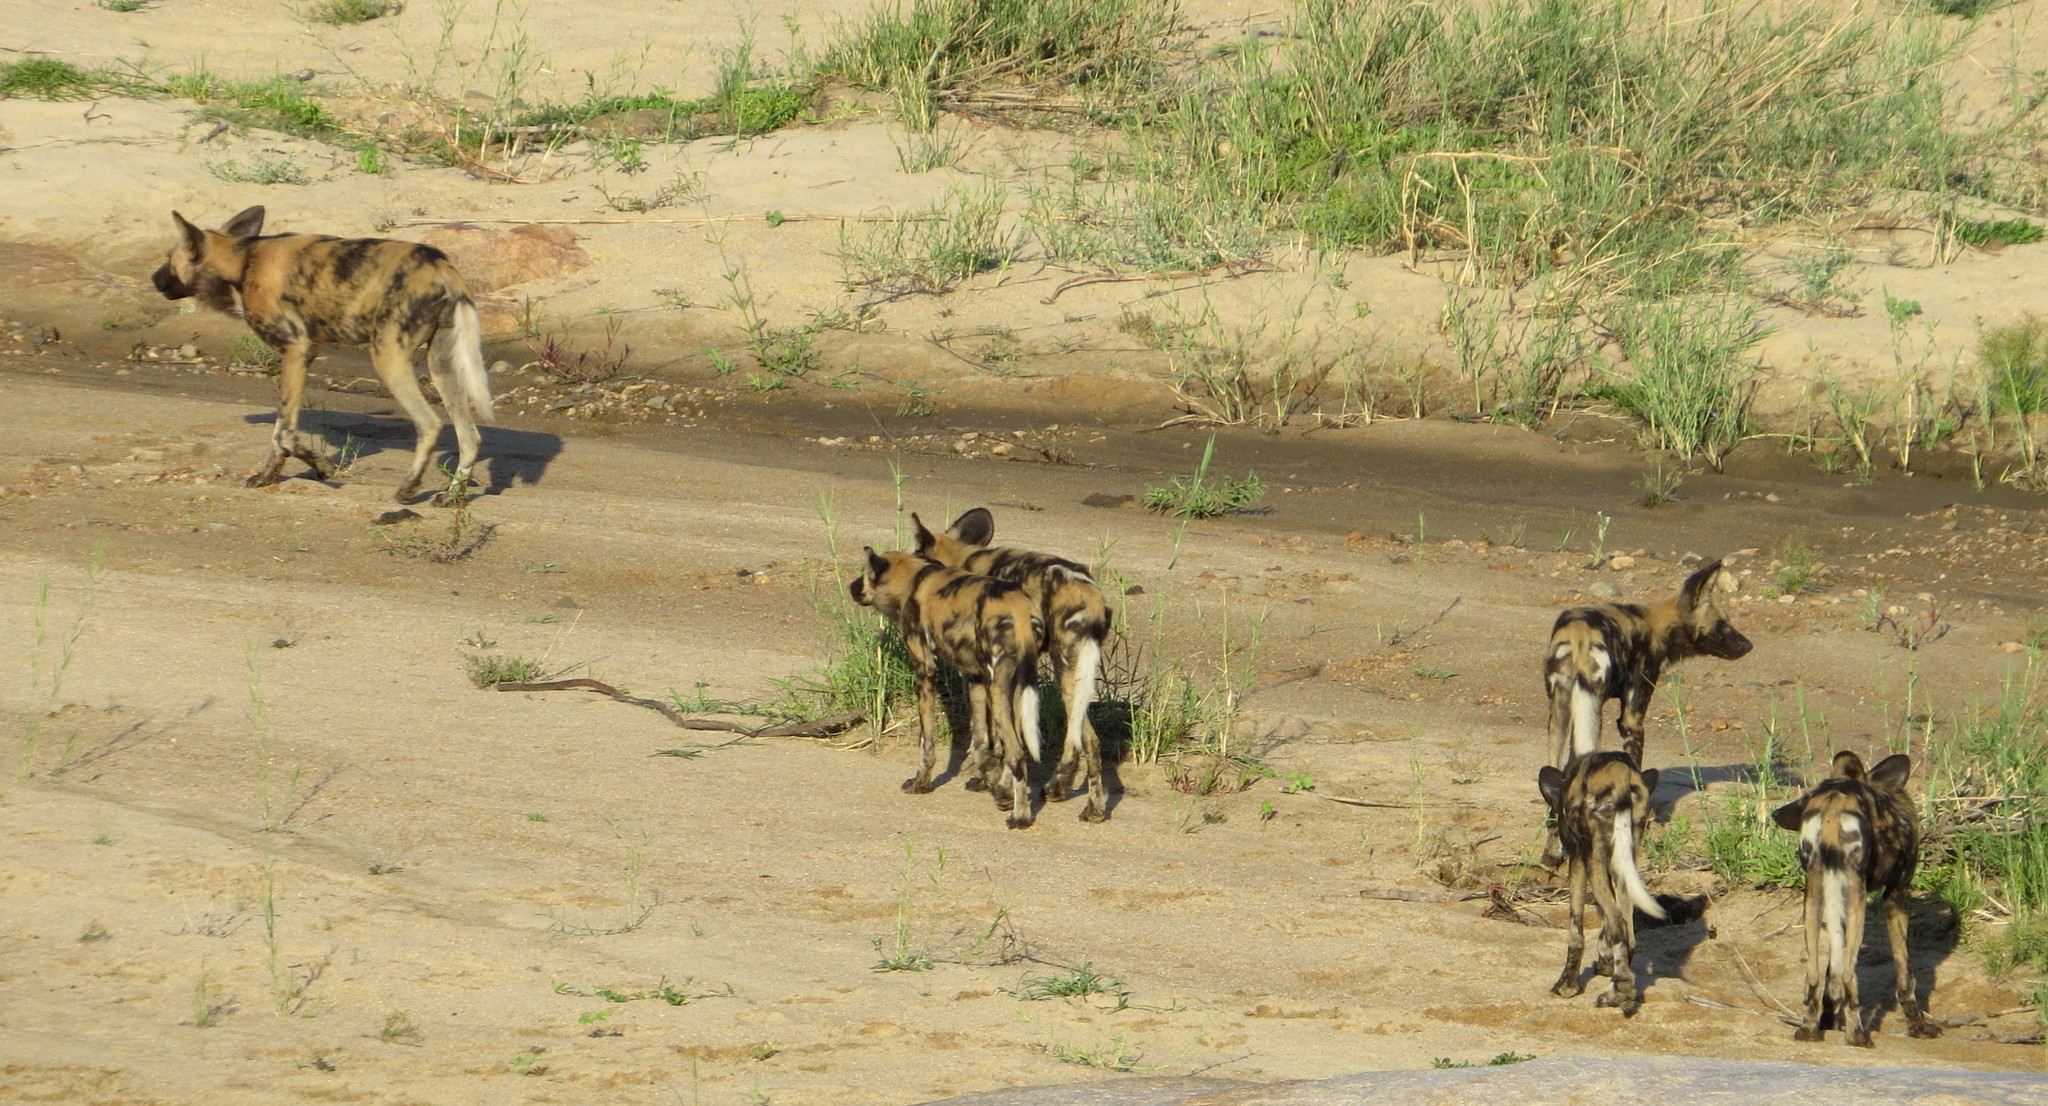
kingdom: Animalia
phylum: Chordata
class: Mammalia
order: Carnivora
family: Canidae
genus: Lycaon
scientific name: Lycaon pictus
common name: African wild dog
